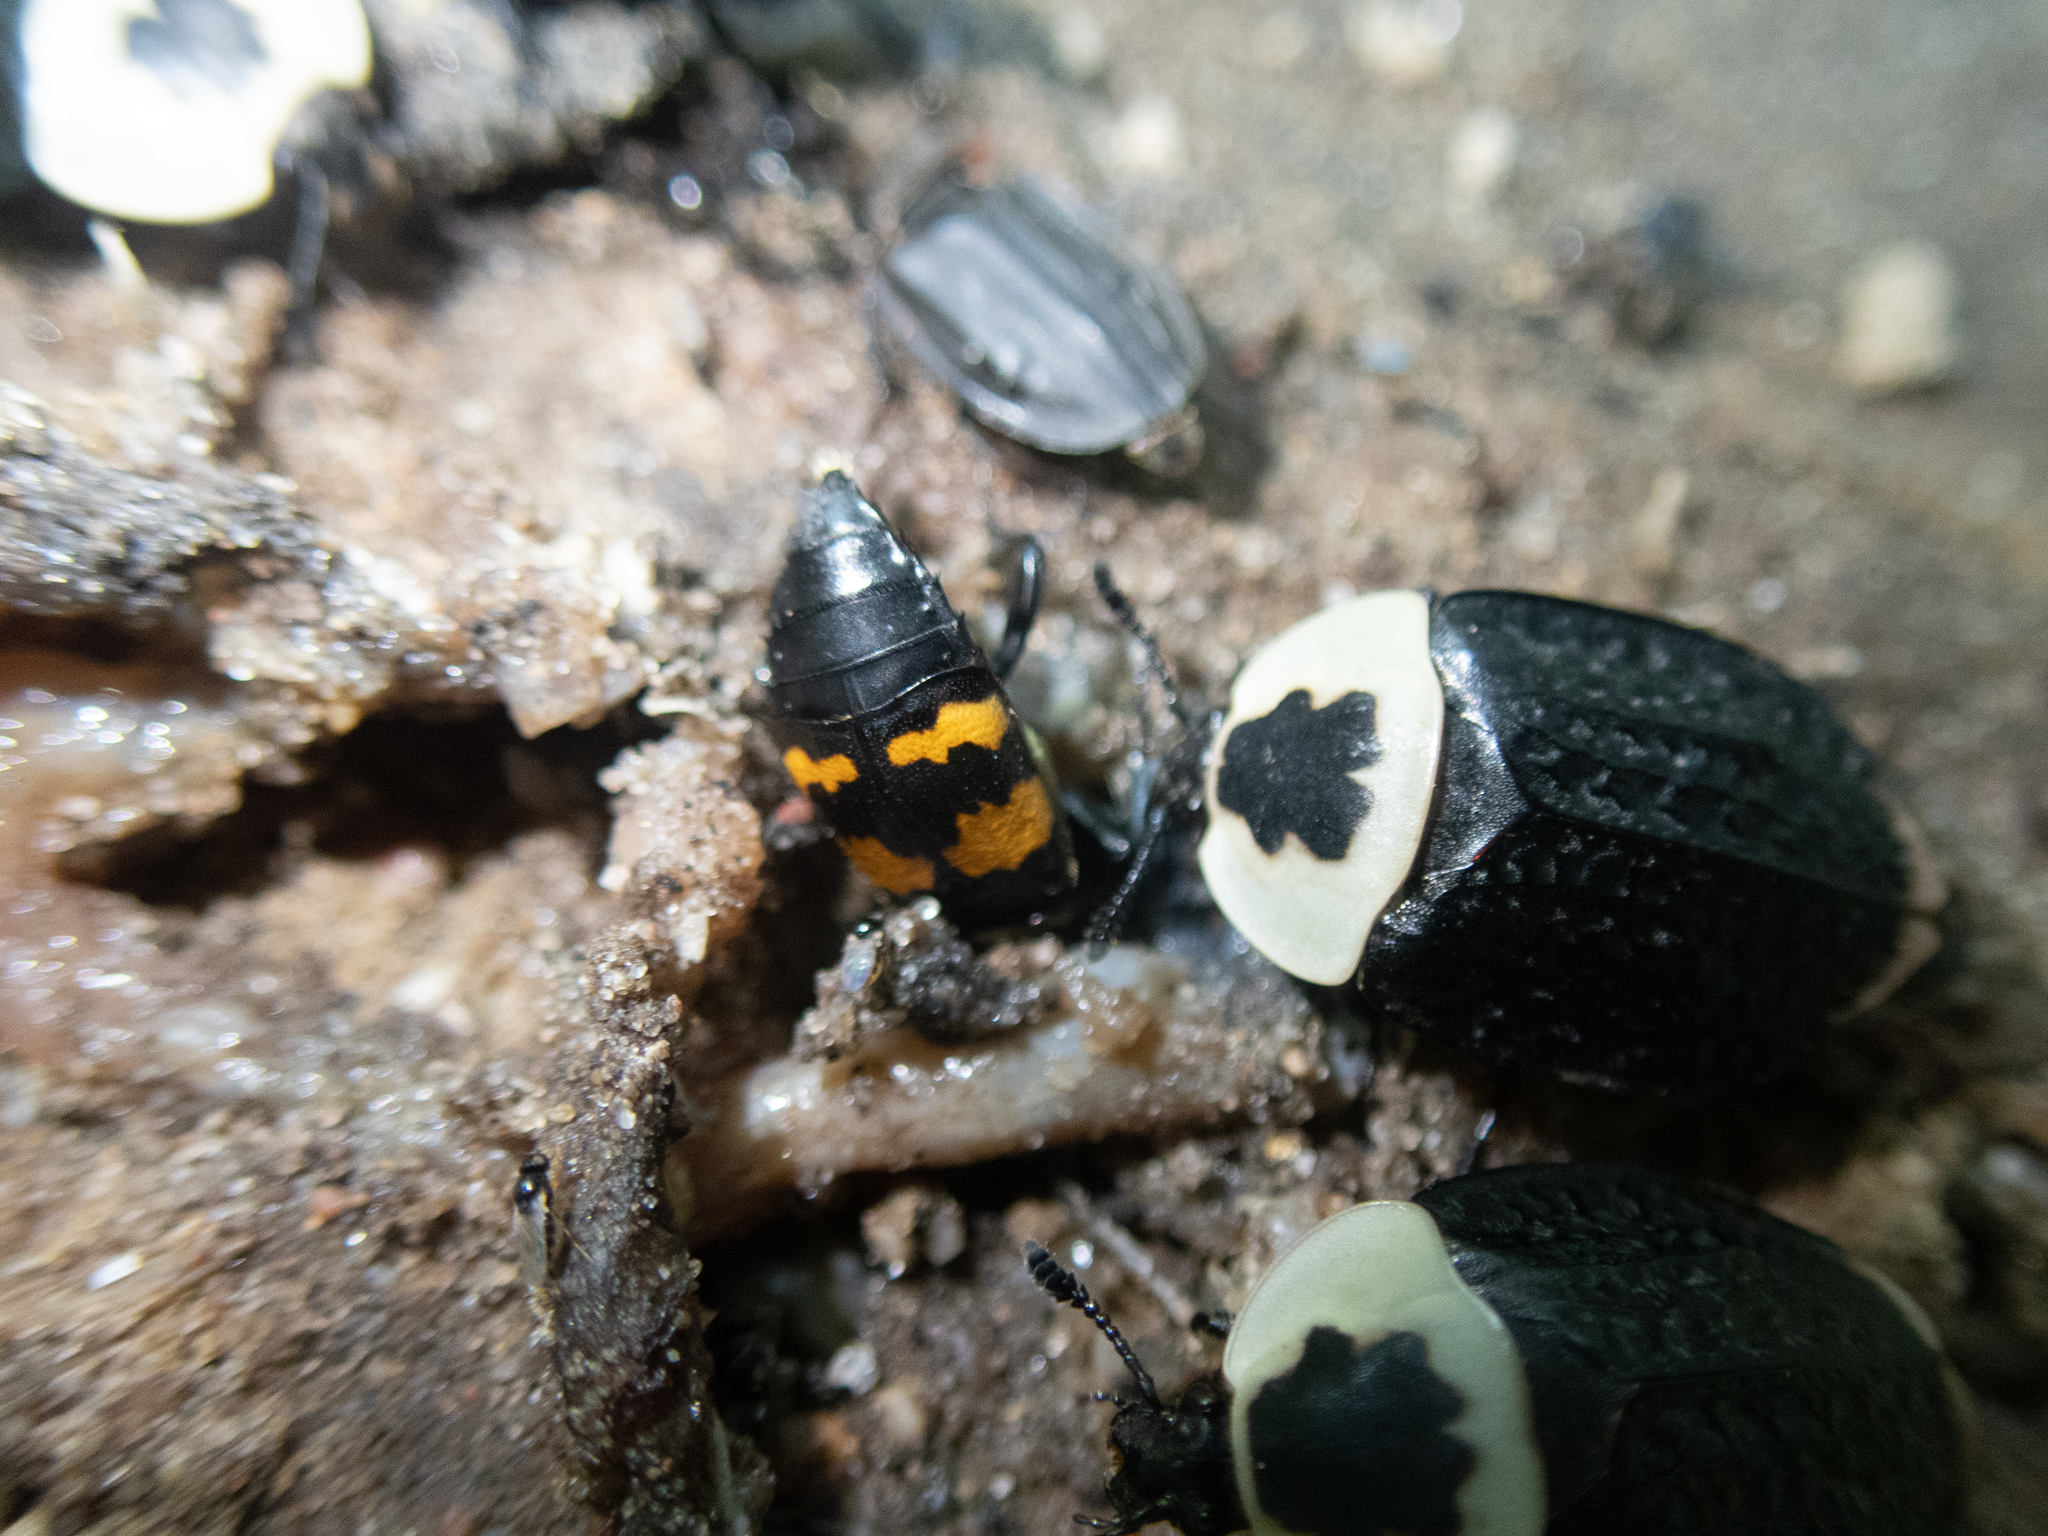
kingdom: Animalia
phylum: Arthropoda
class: Insecta
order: Coleoptera
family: Staphylinidae
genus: Necrophila
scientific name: Necrophila americana
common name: American carrion beetle
